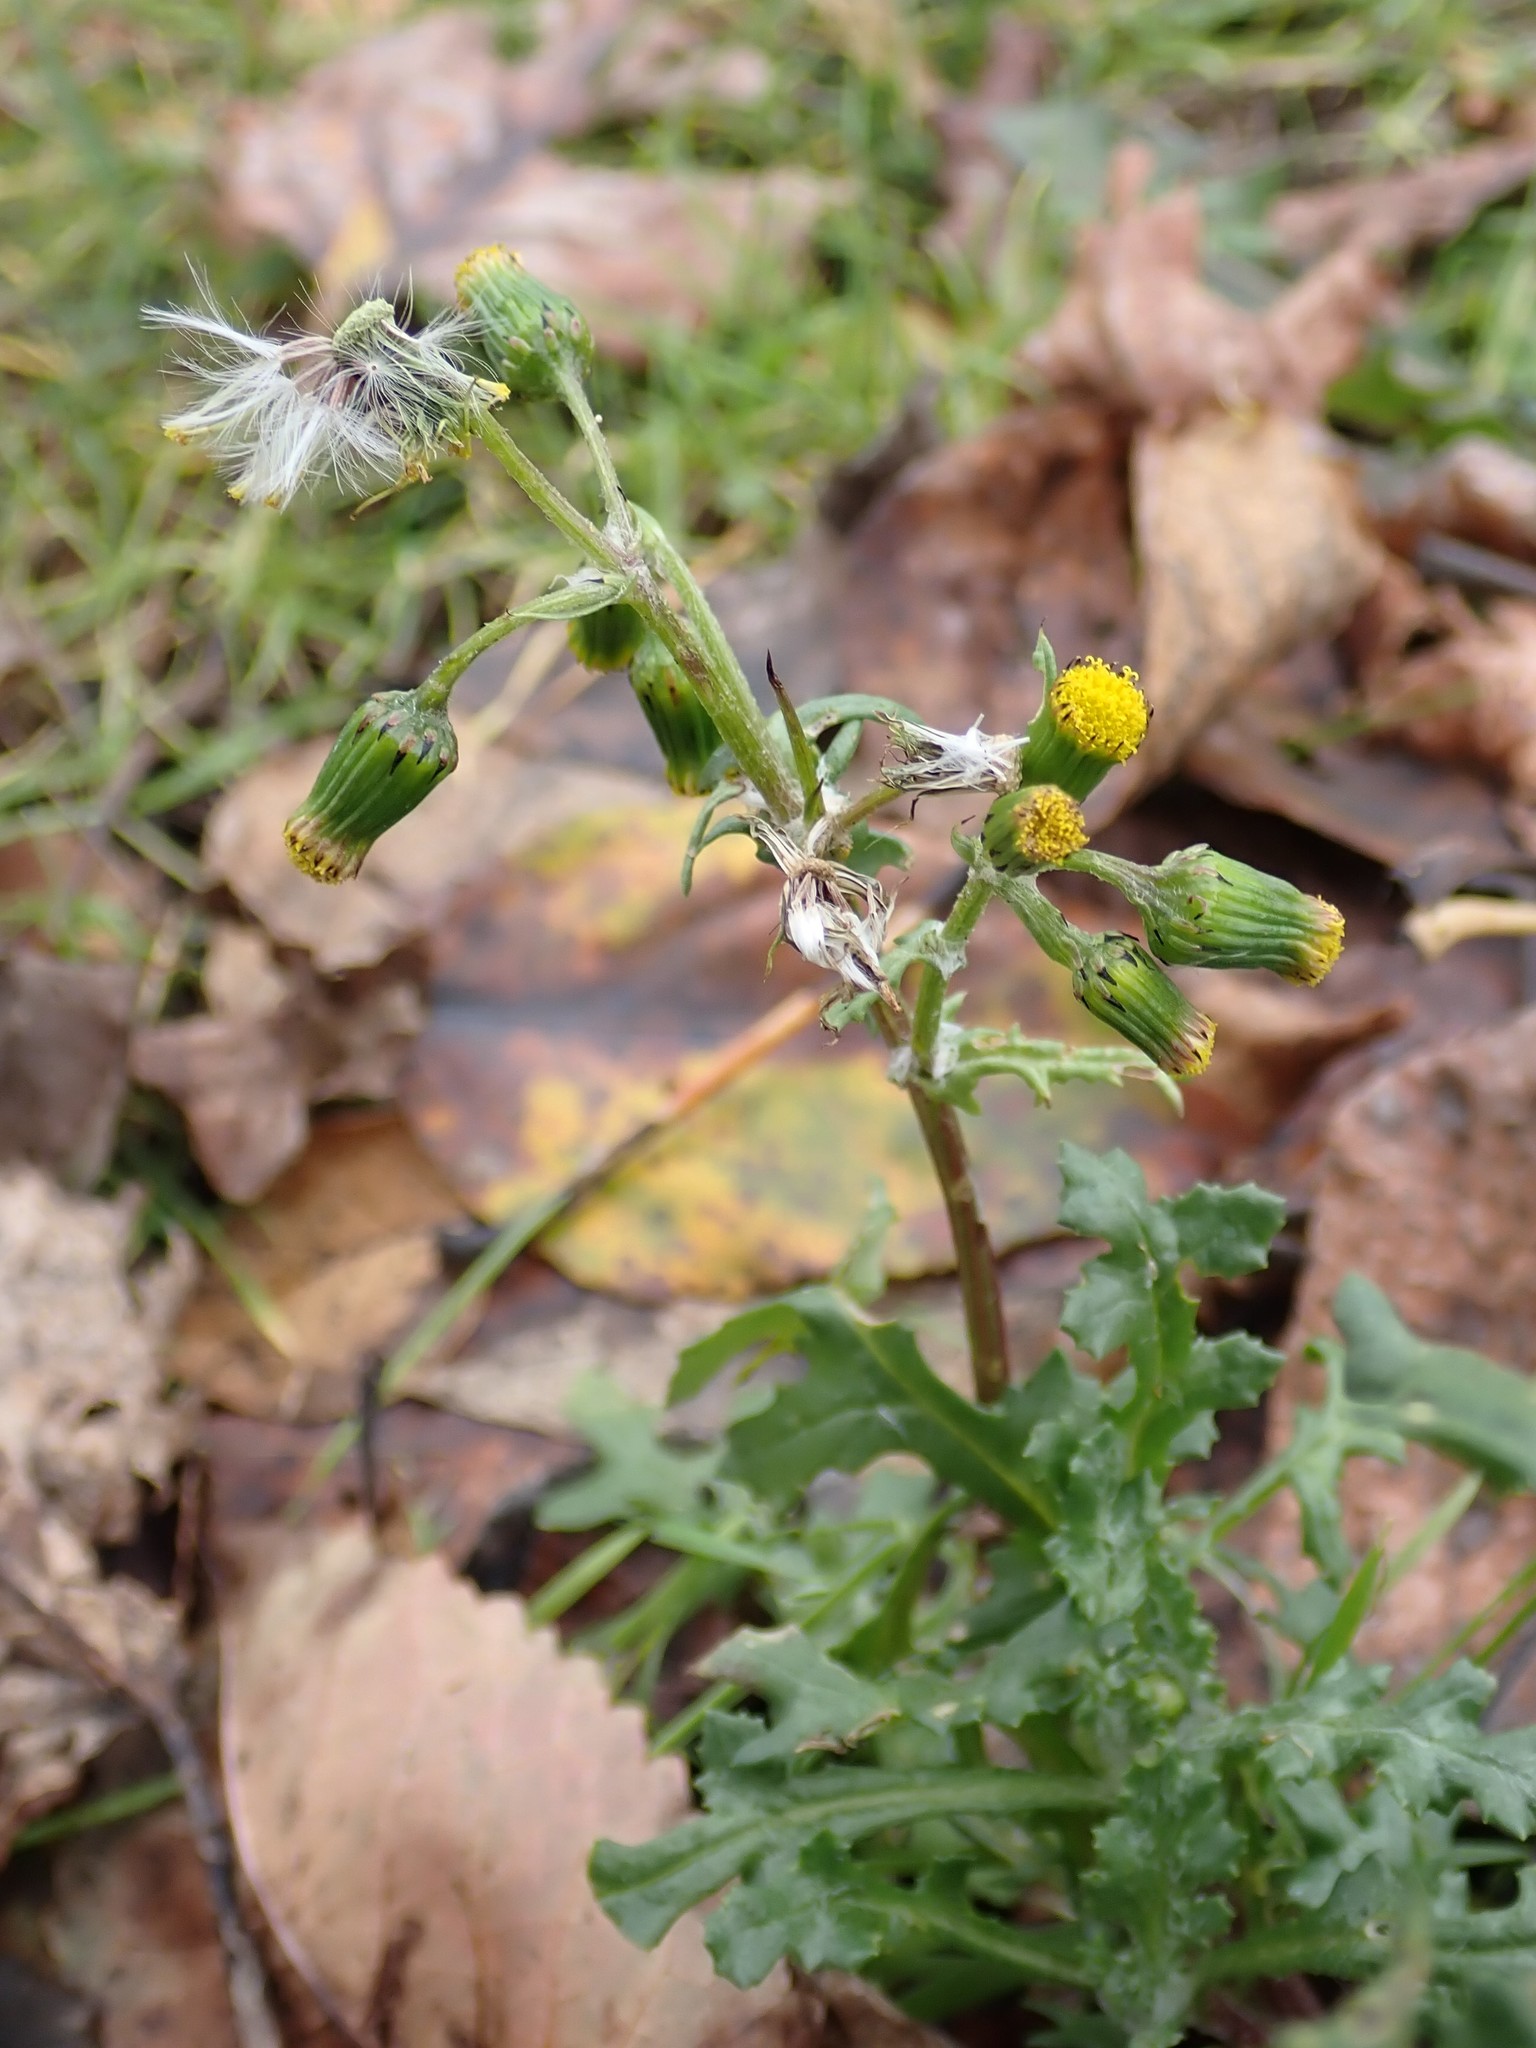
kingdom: Plantae
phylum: Tracheophyta
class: Magnoliopsida
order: Asterales
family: Asteraceae
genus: Senecio
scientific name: Senecio vulgaris
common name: Old-man-in-the-spring
